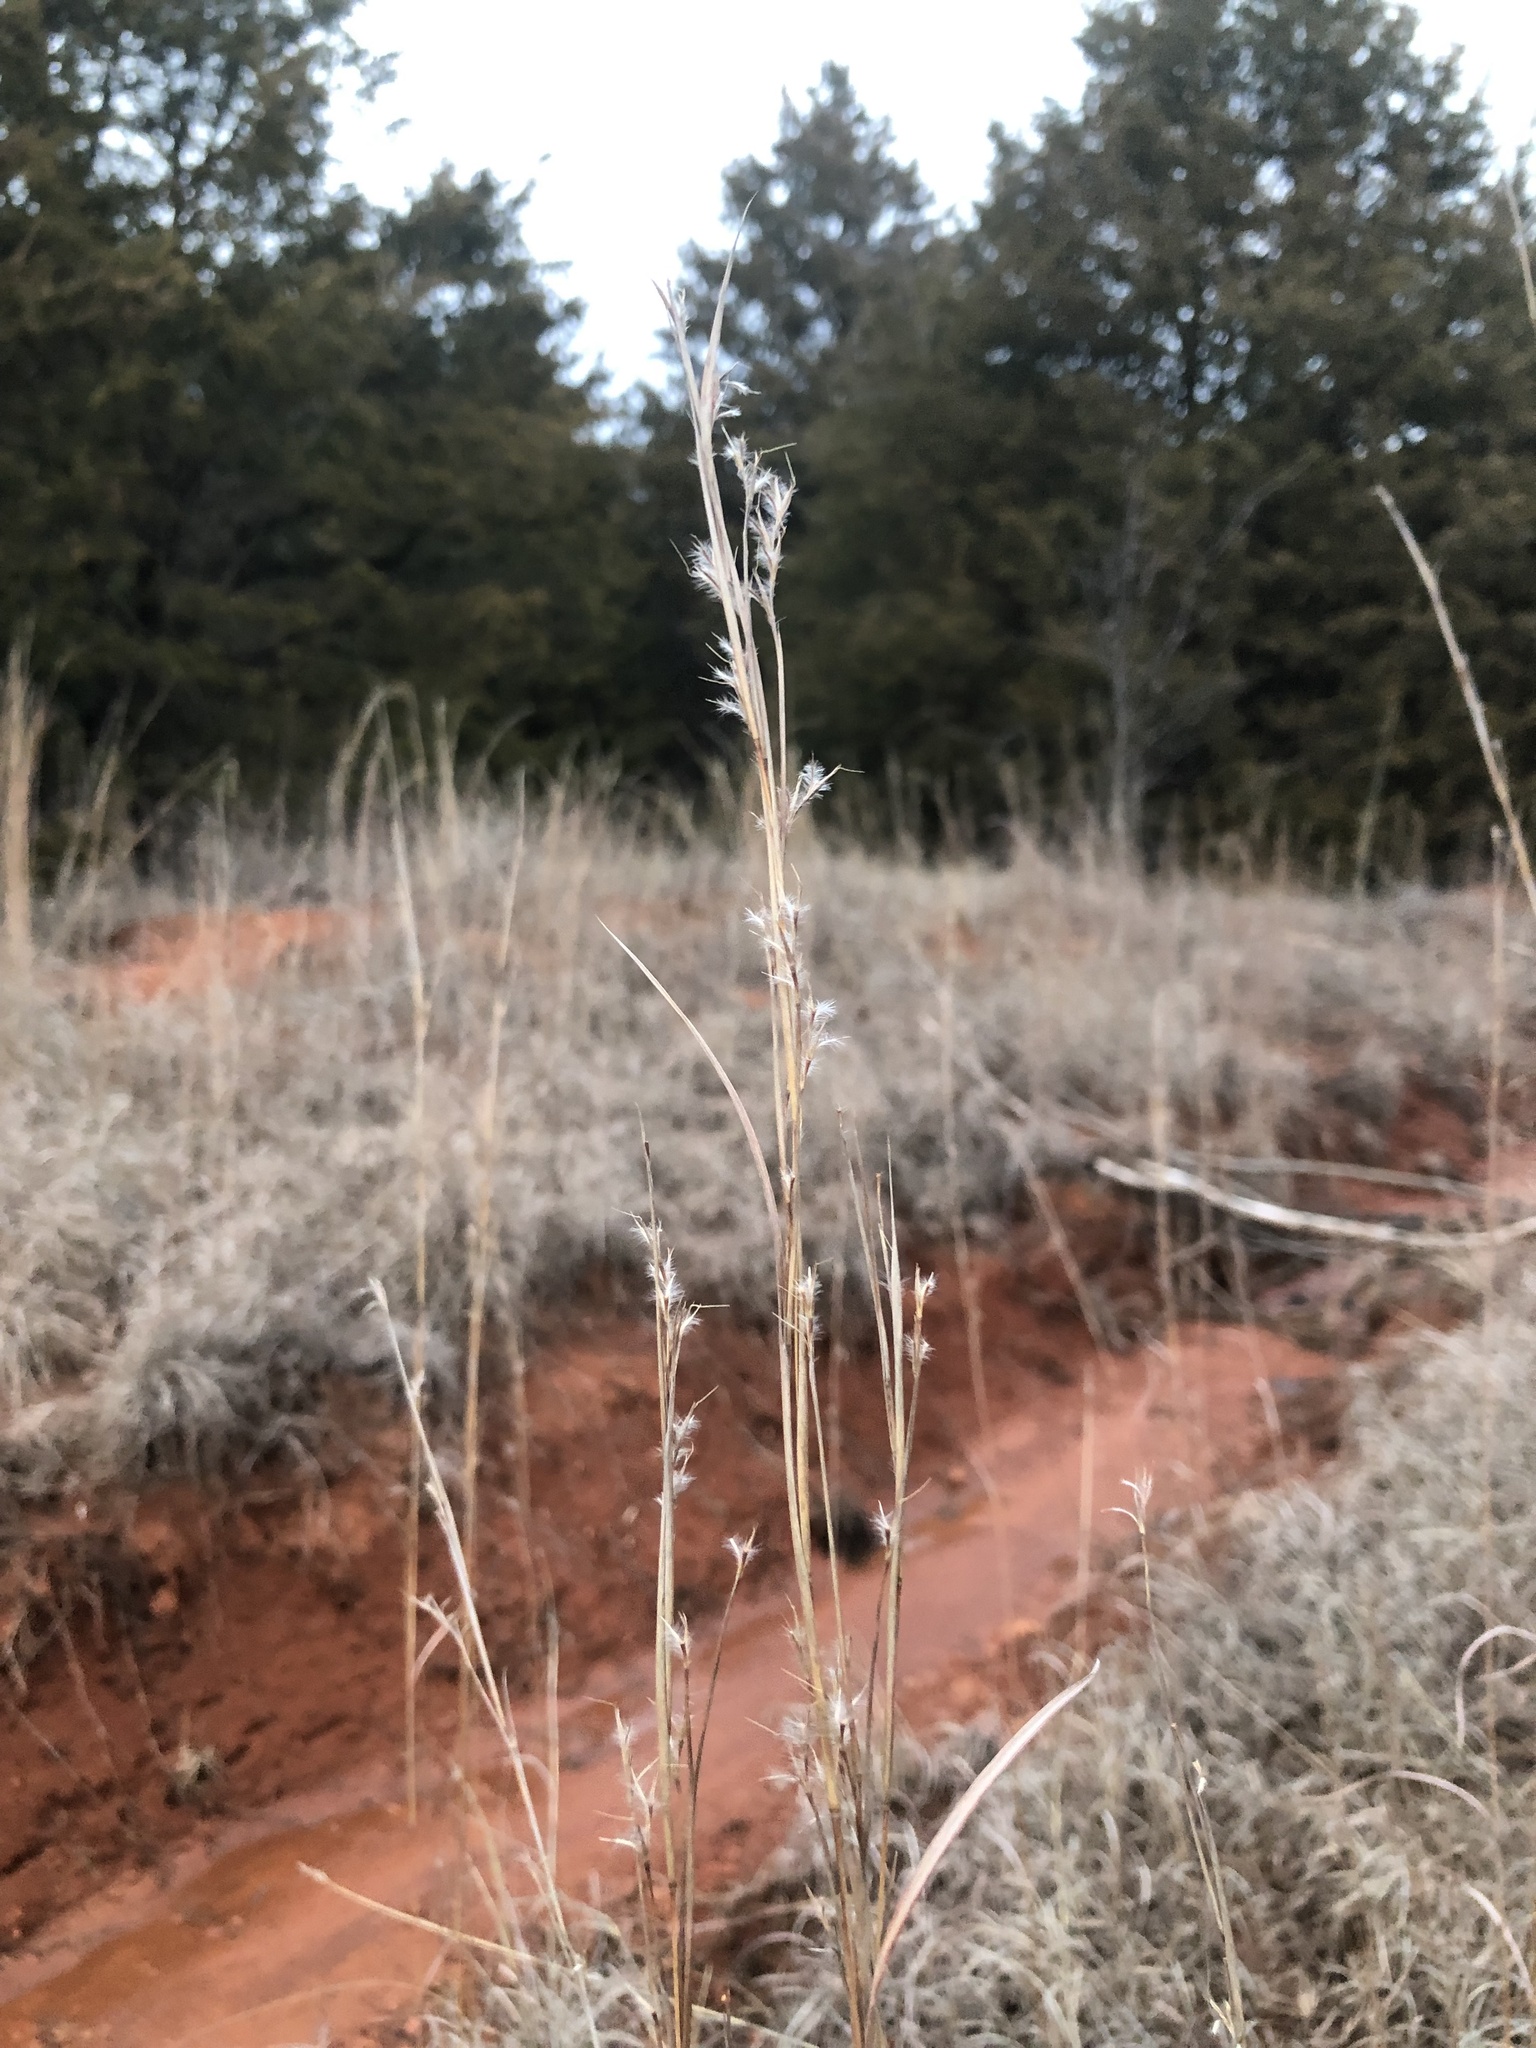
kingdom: Plantae
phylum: Tracheophyta
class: Liliopsida
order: Poales
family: Poaceae
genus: Schizachyrium
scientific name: Schizachyrium scoparium
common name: Little bluestem
